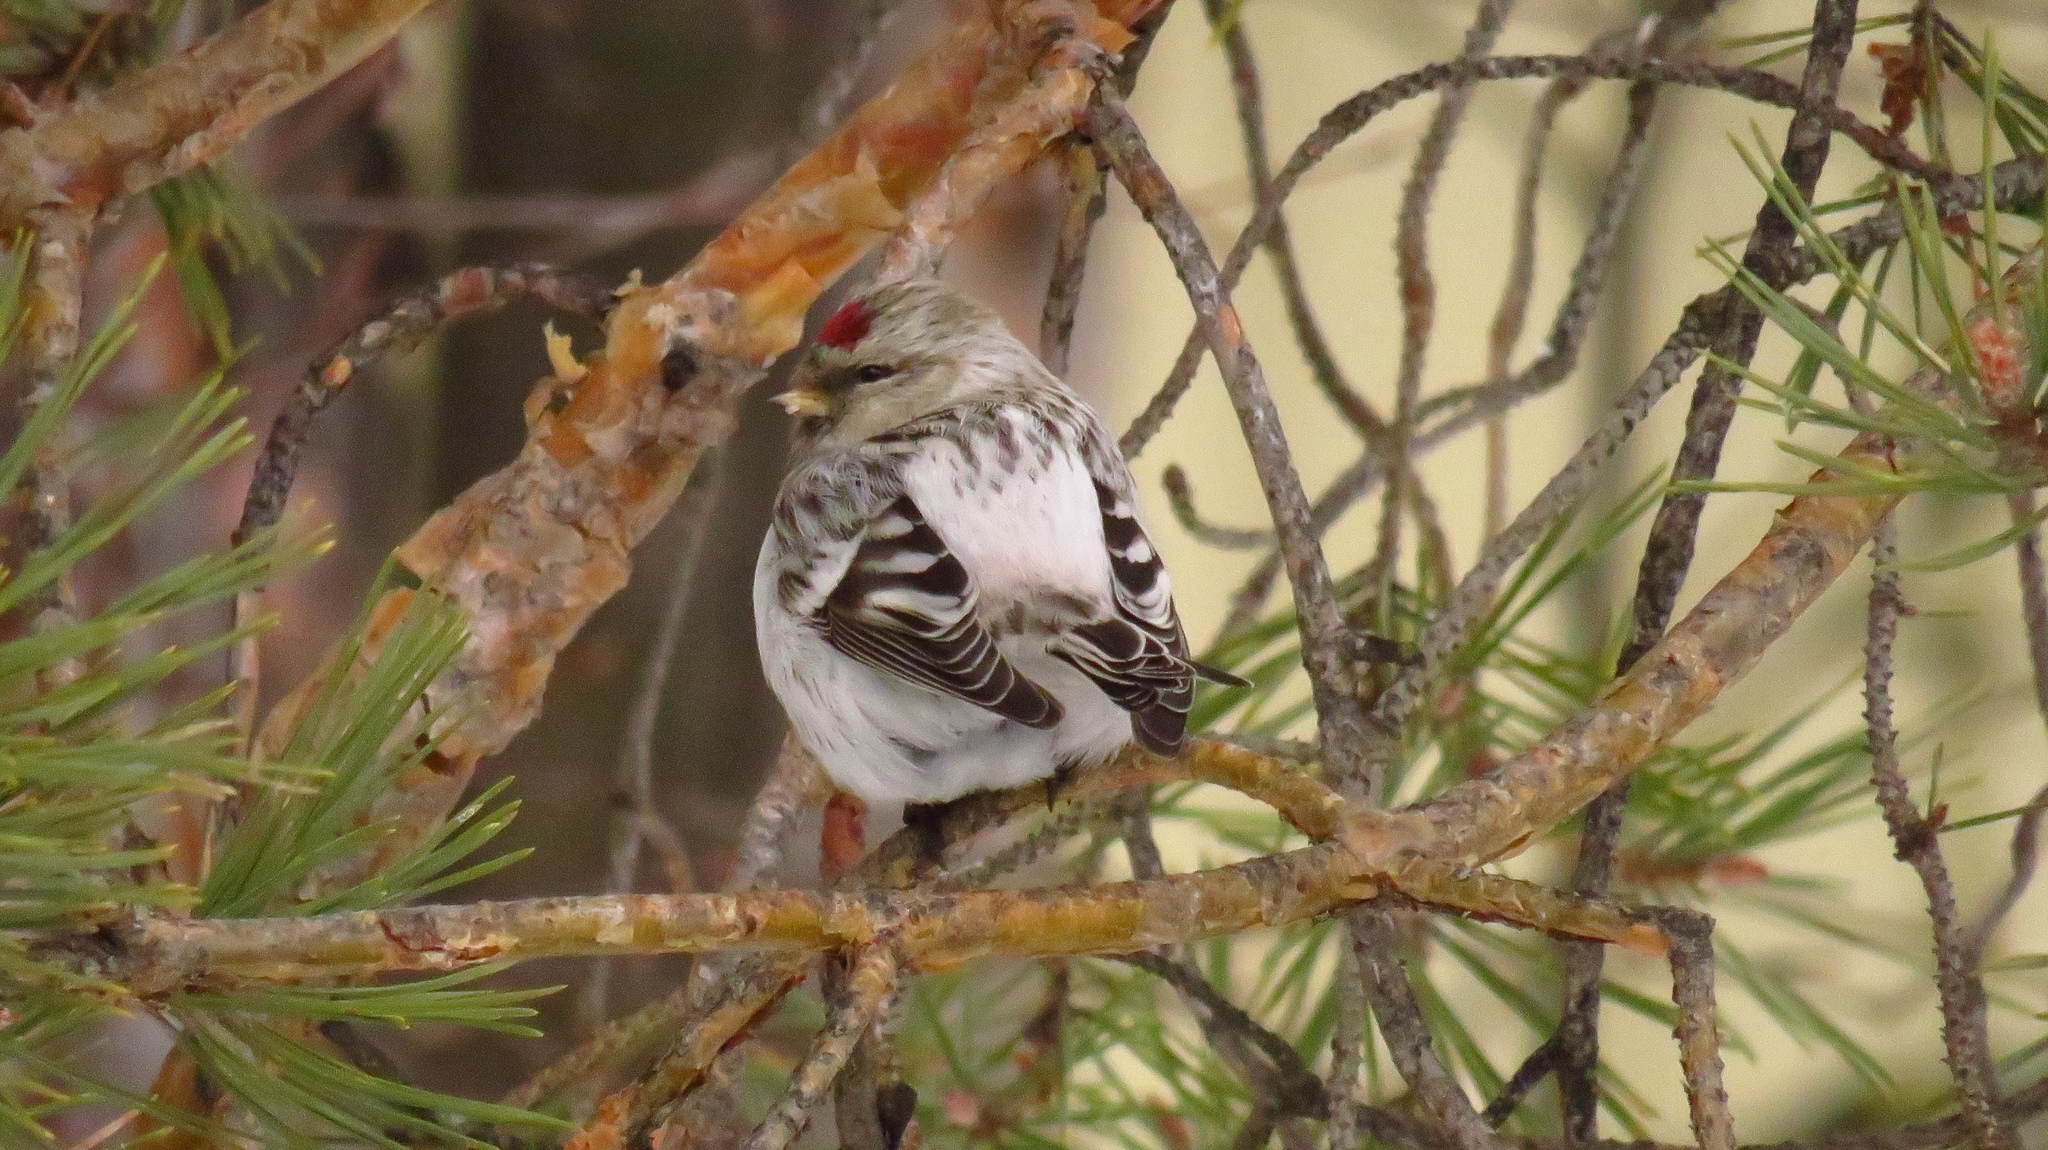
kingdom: Animalia
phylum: Chordata
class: Aves
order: Passeriformes
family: Fringillidae
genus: Acanthis
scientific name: Acanthis hornemanni
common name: Arctic redpoll
